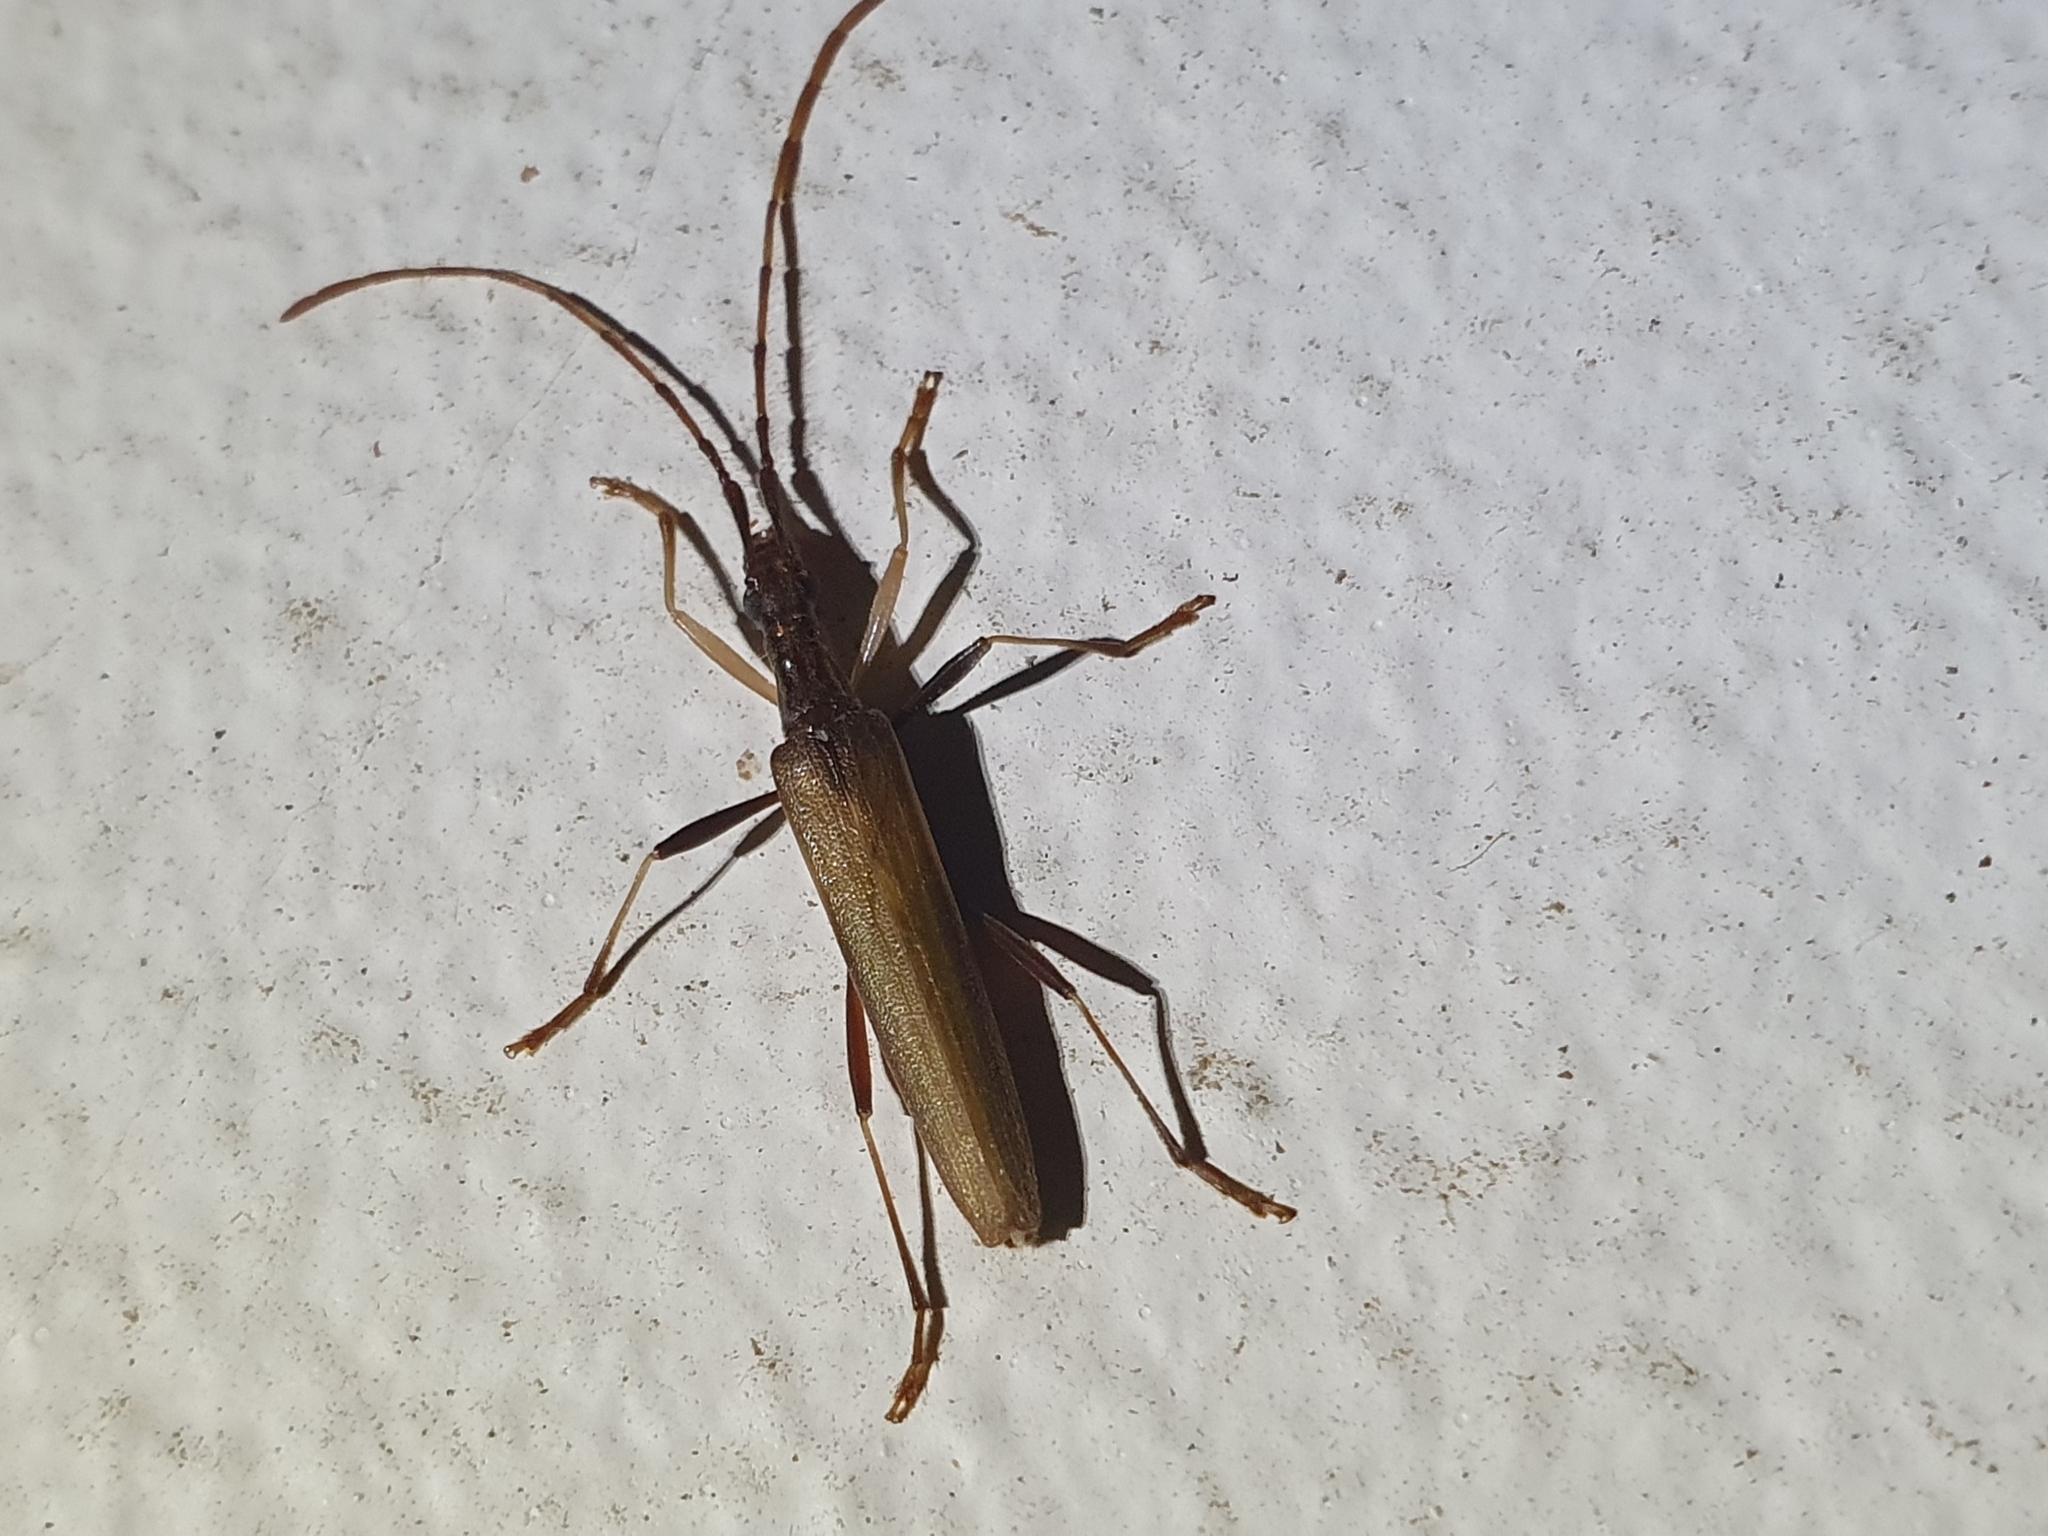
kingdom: Animalia
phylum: Arthropoda
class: Insecta
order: Coleoptera
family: Cerambycidae
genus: Stenopotes
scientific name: Stenopotes pallidus
